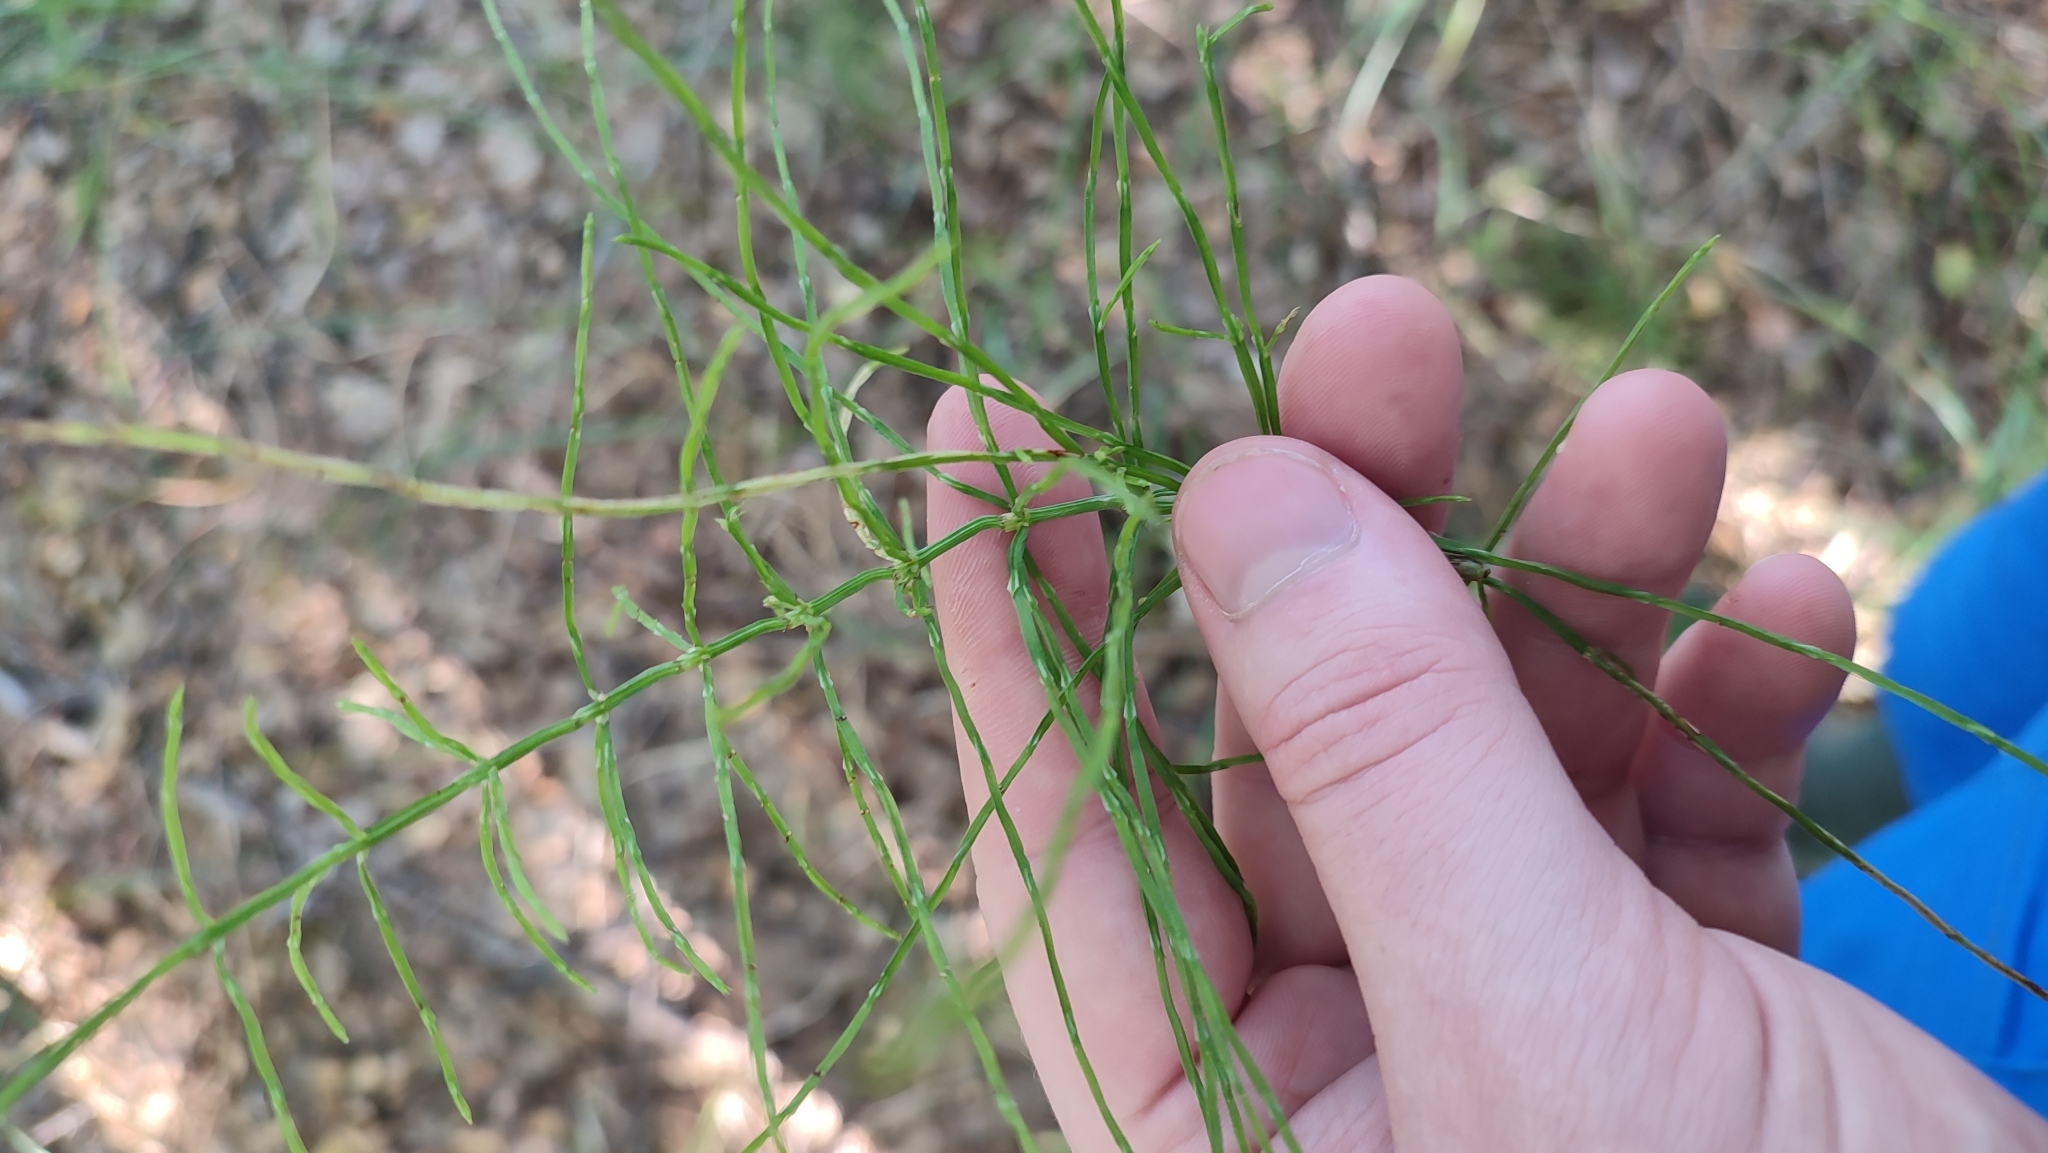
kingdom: Plantae
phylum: Tracheophyta
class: Polypodiopsida
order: Equisetales
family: Equisetaceae
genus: Equisetum
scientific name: Equisetum arvense
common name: Field horsetail
